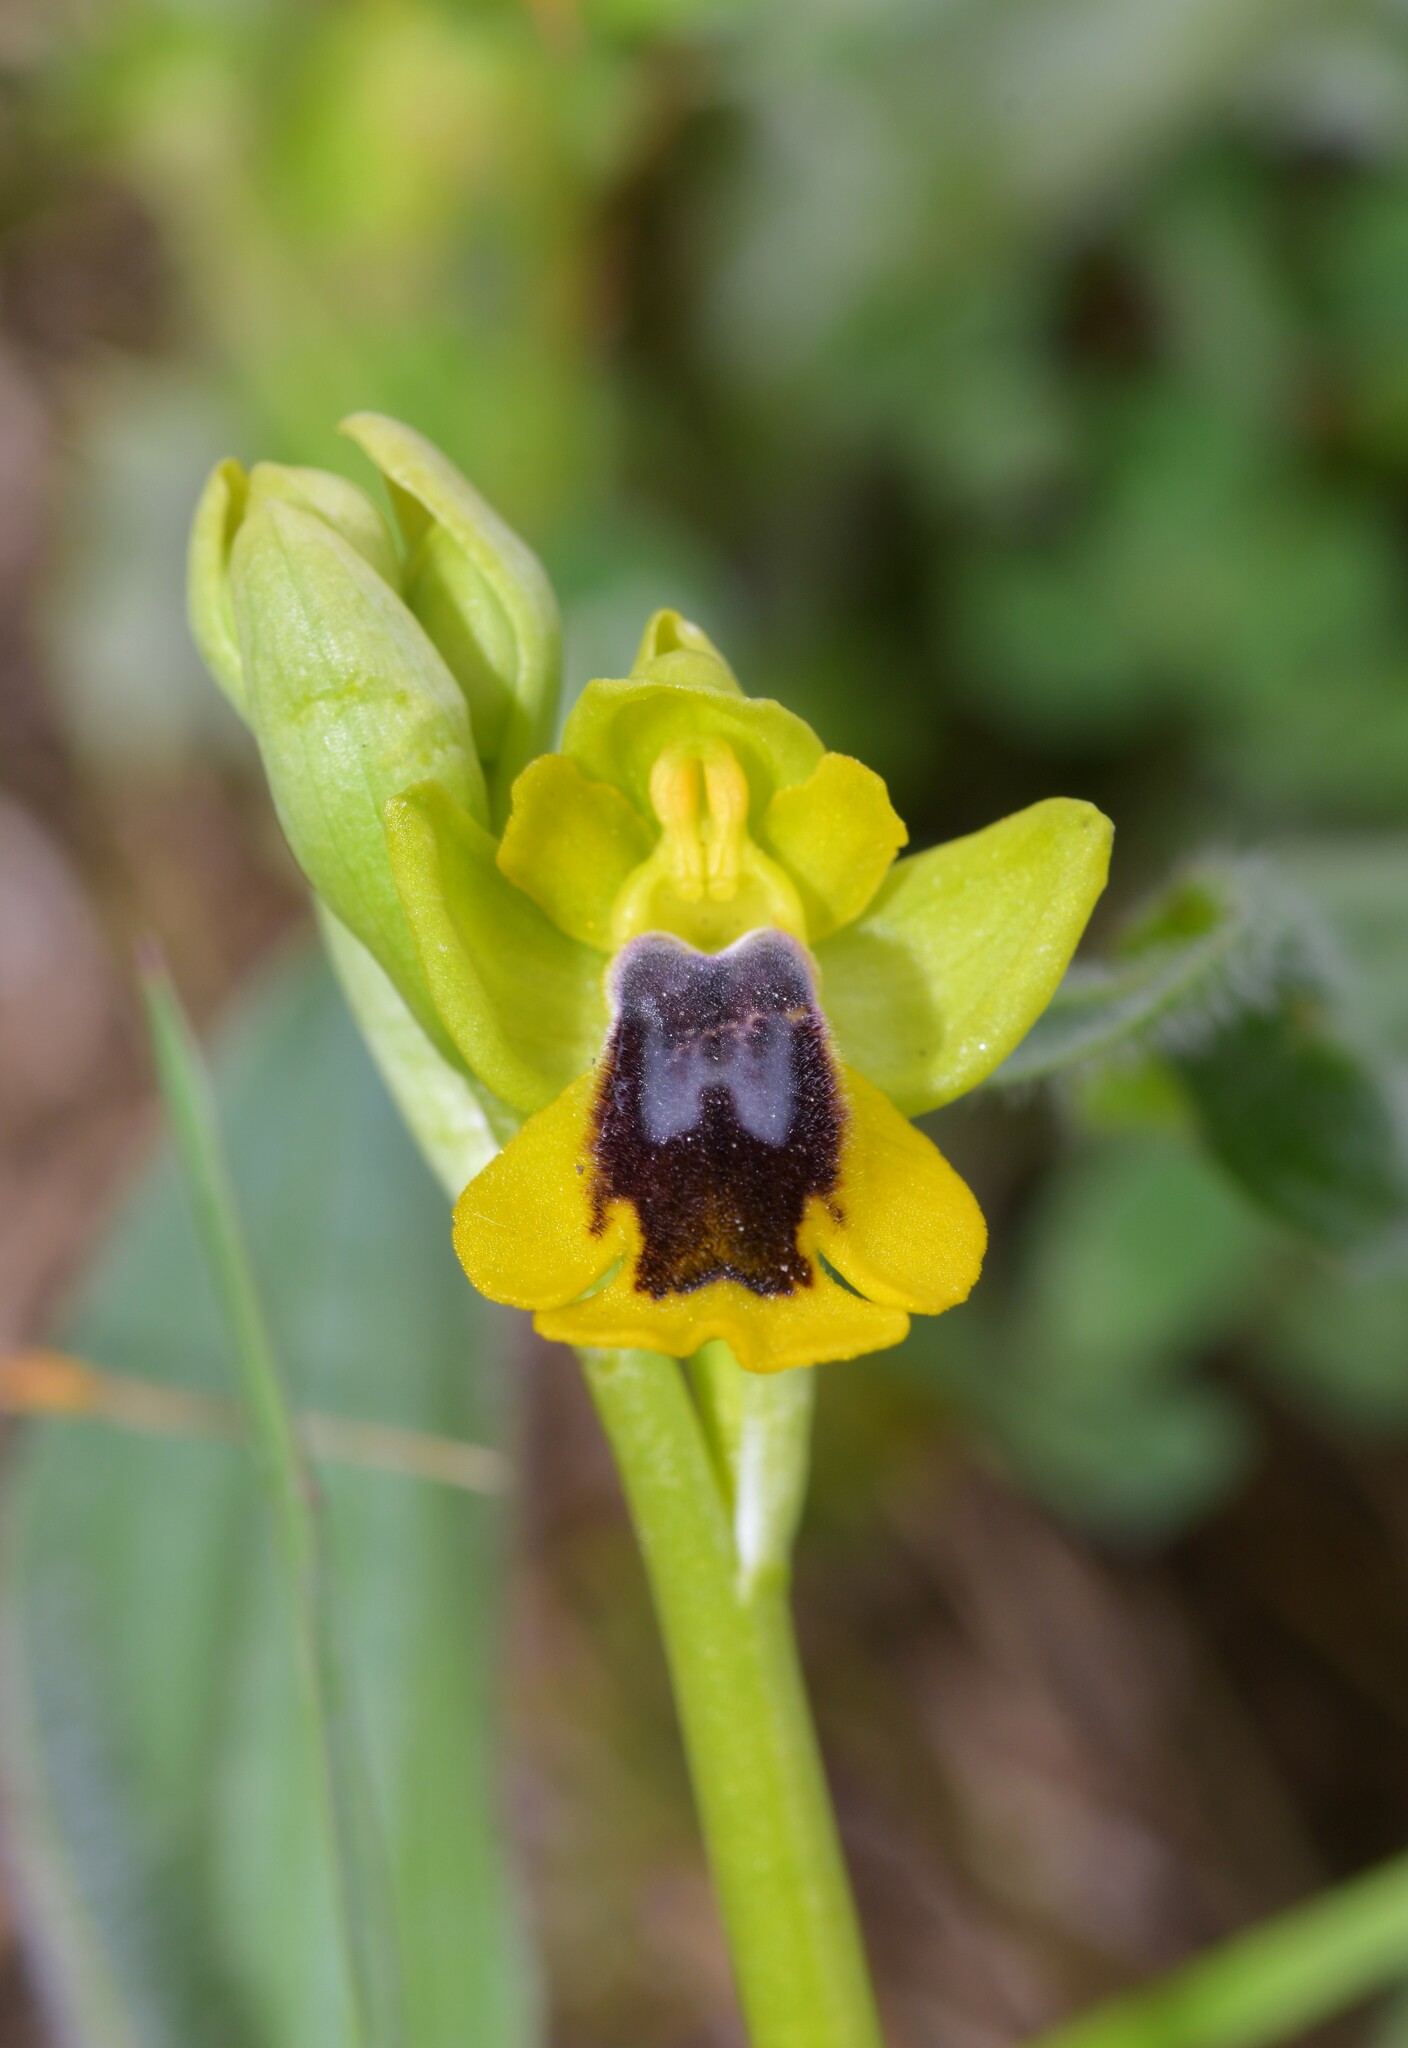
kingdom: Plantae
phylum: Tracheophyta
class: Liliopsida
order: Asparagales
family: Orchidaceae
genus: Ophrys
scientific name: Ophrys lutea
